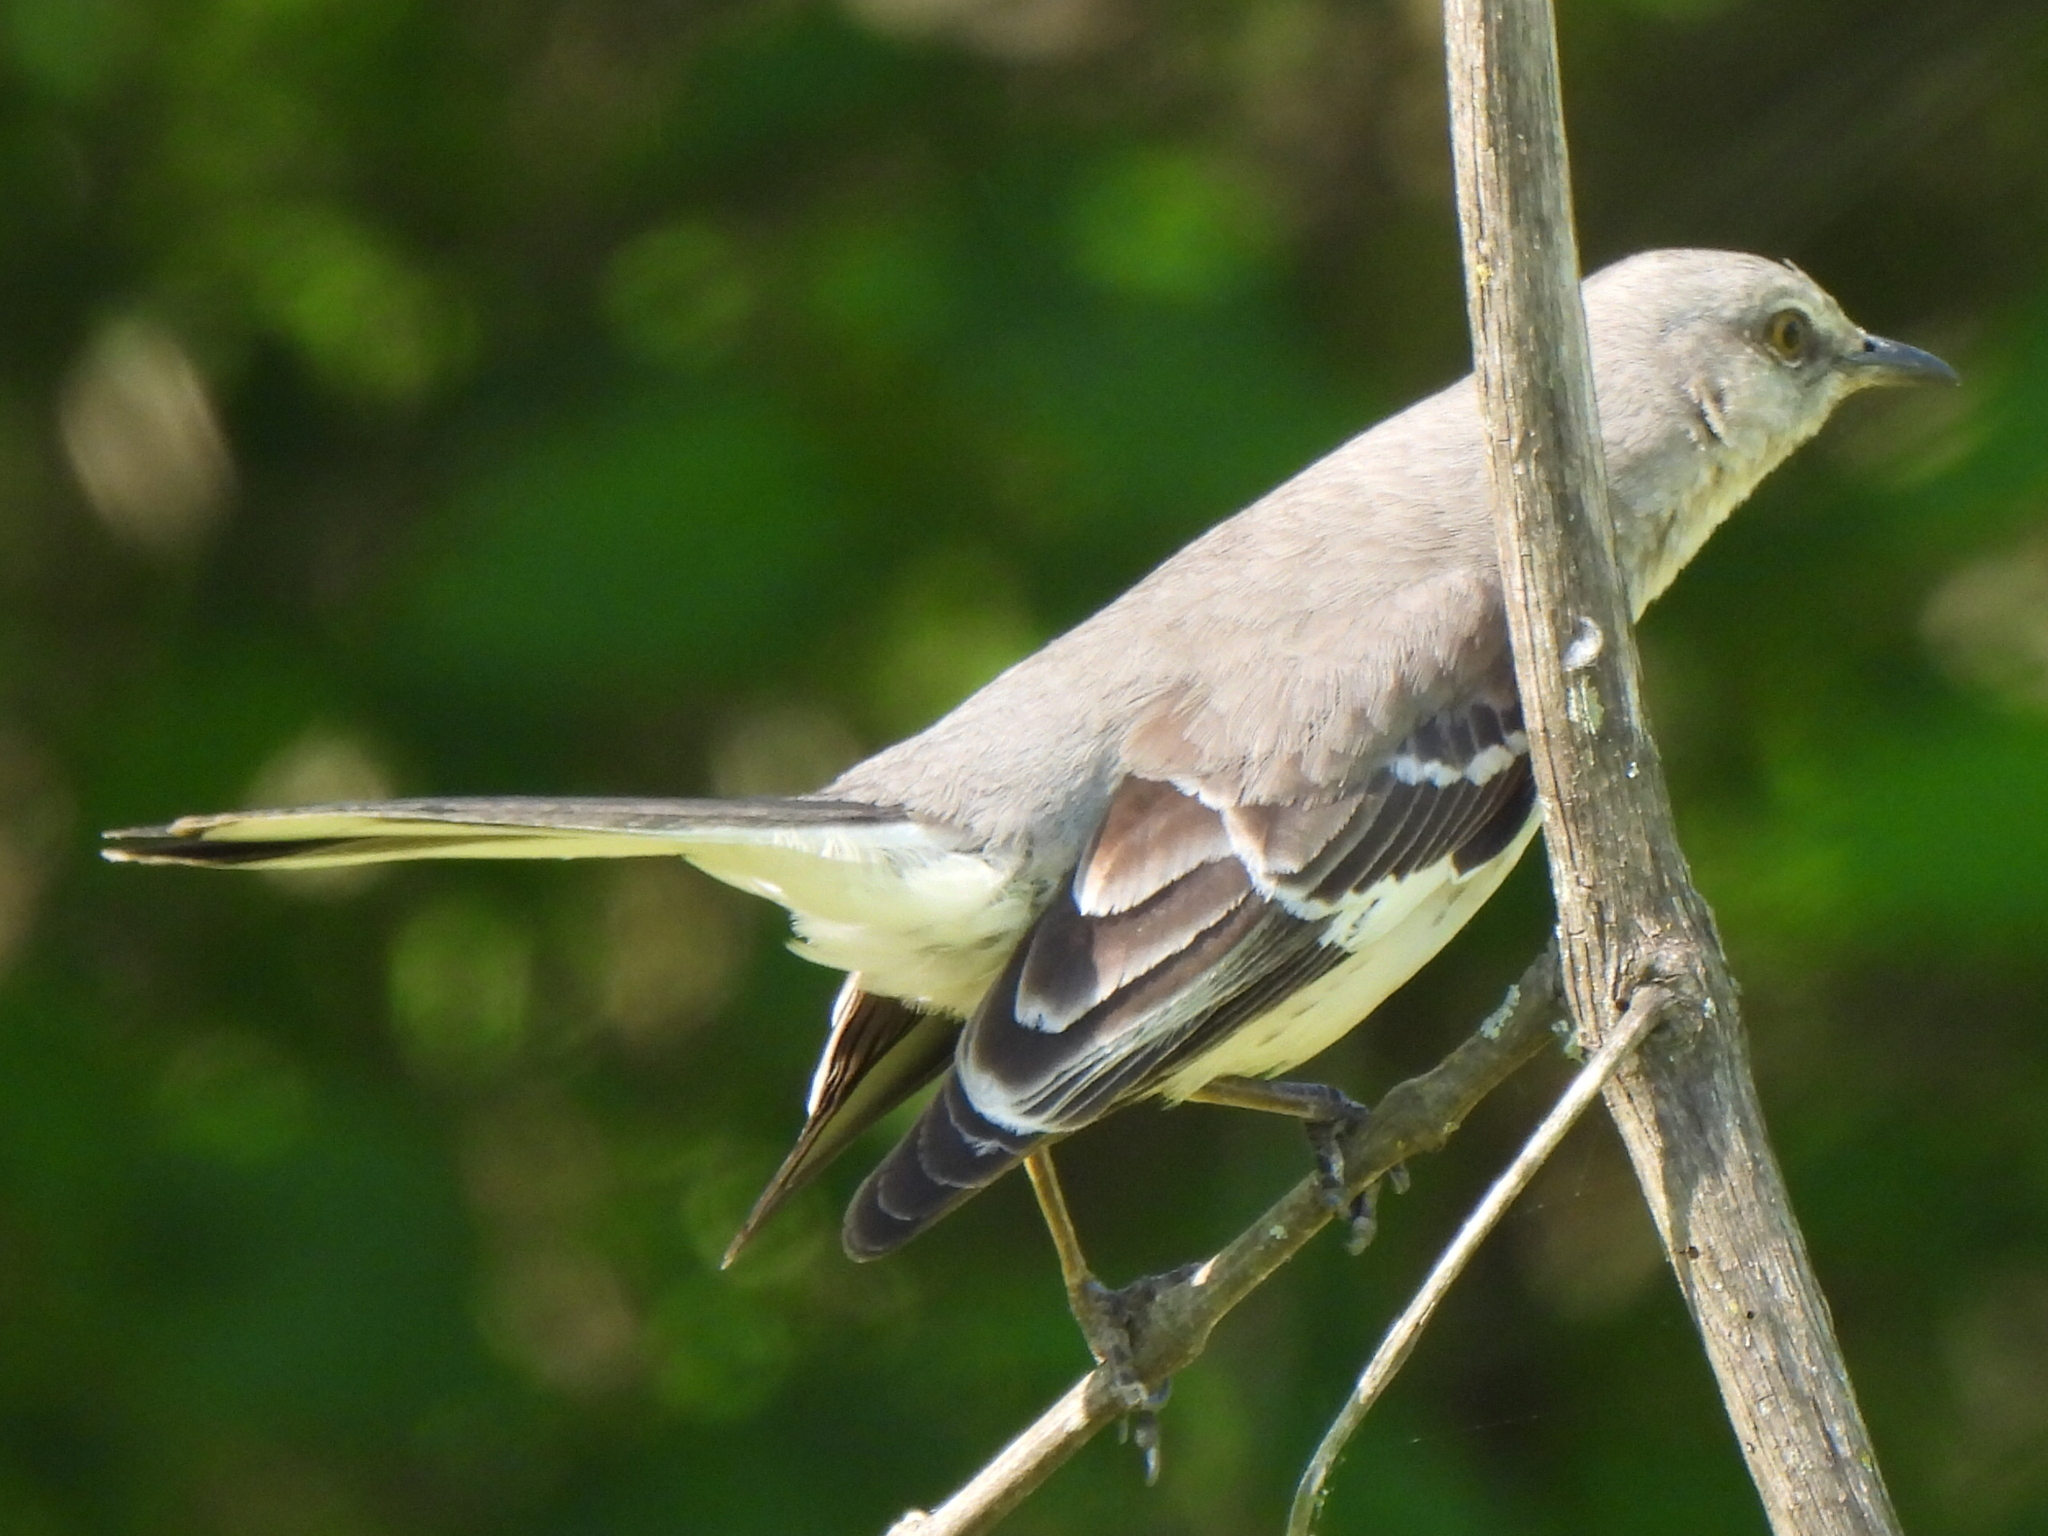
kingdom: Animalia
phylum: Chordata
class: Aves
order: Passeriformes
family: Mimidae
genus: Mimus
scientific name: Mimus polyglottos
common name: Northern mockingbird
